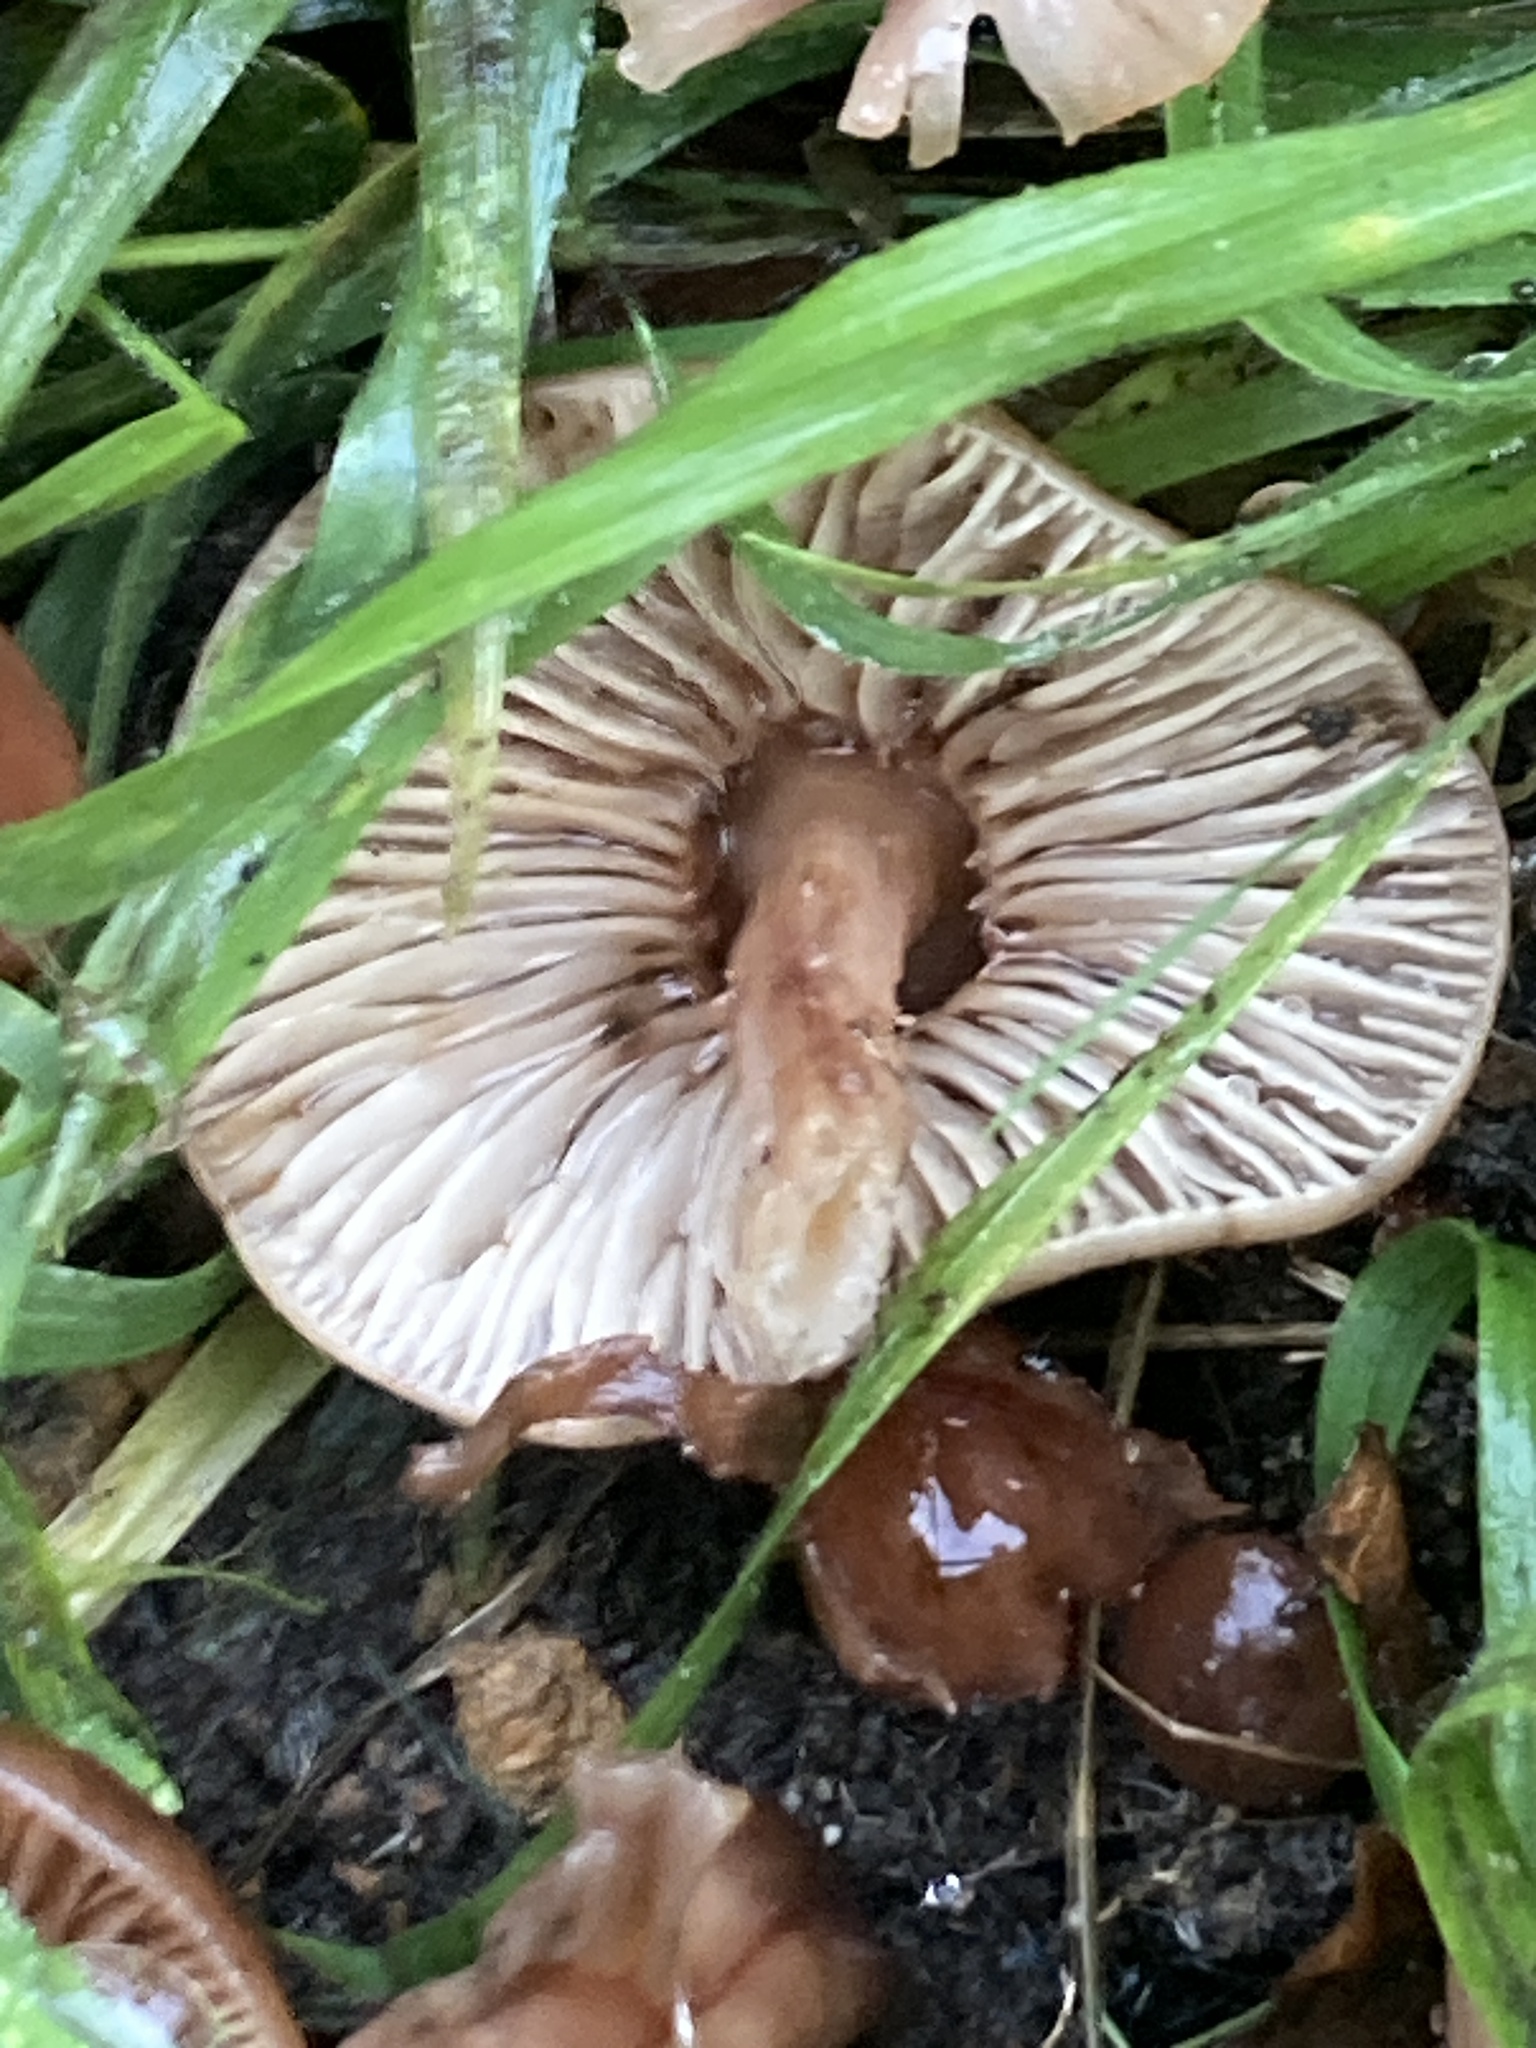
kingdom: Fungi
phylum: Basidiomycota
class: Agaricomycetes
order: Agaricales
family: Omphalotaceae
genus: Gymnopus
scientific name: Gymnopus fusipes
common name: Spindle shank
